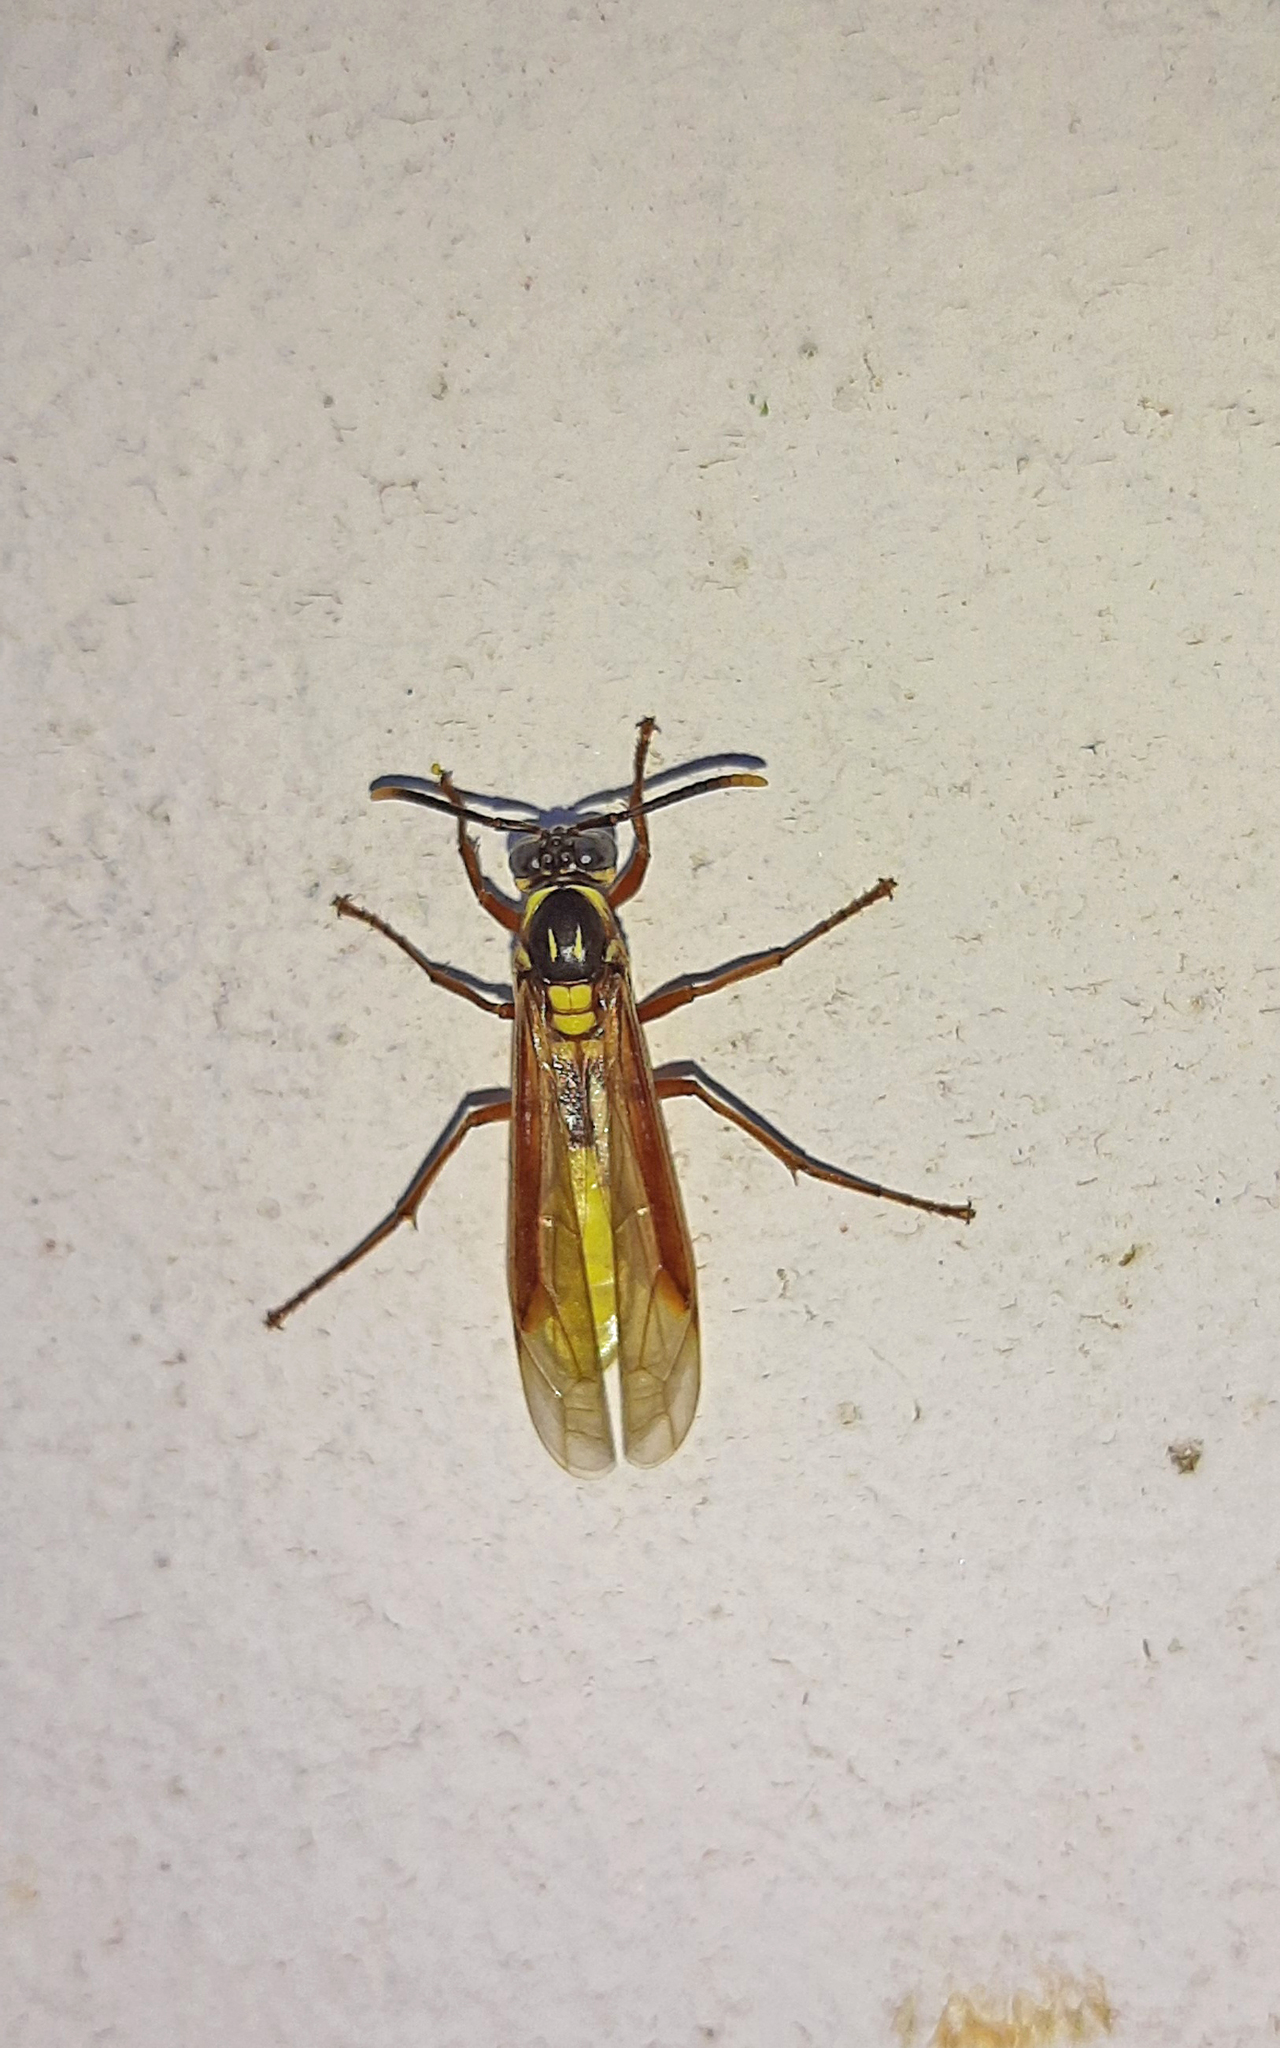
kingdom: Animalia
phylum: Arthropoda
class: Insecta
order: Hymenoptera
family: Vespidae
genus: Apoica
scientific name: Apoica pallens
